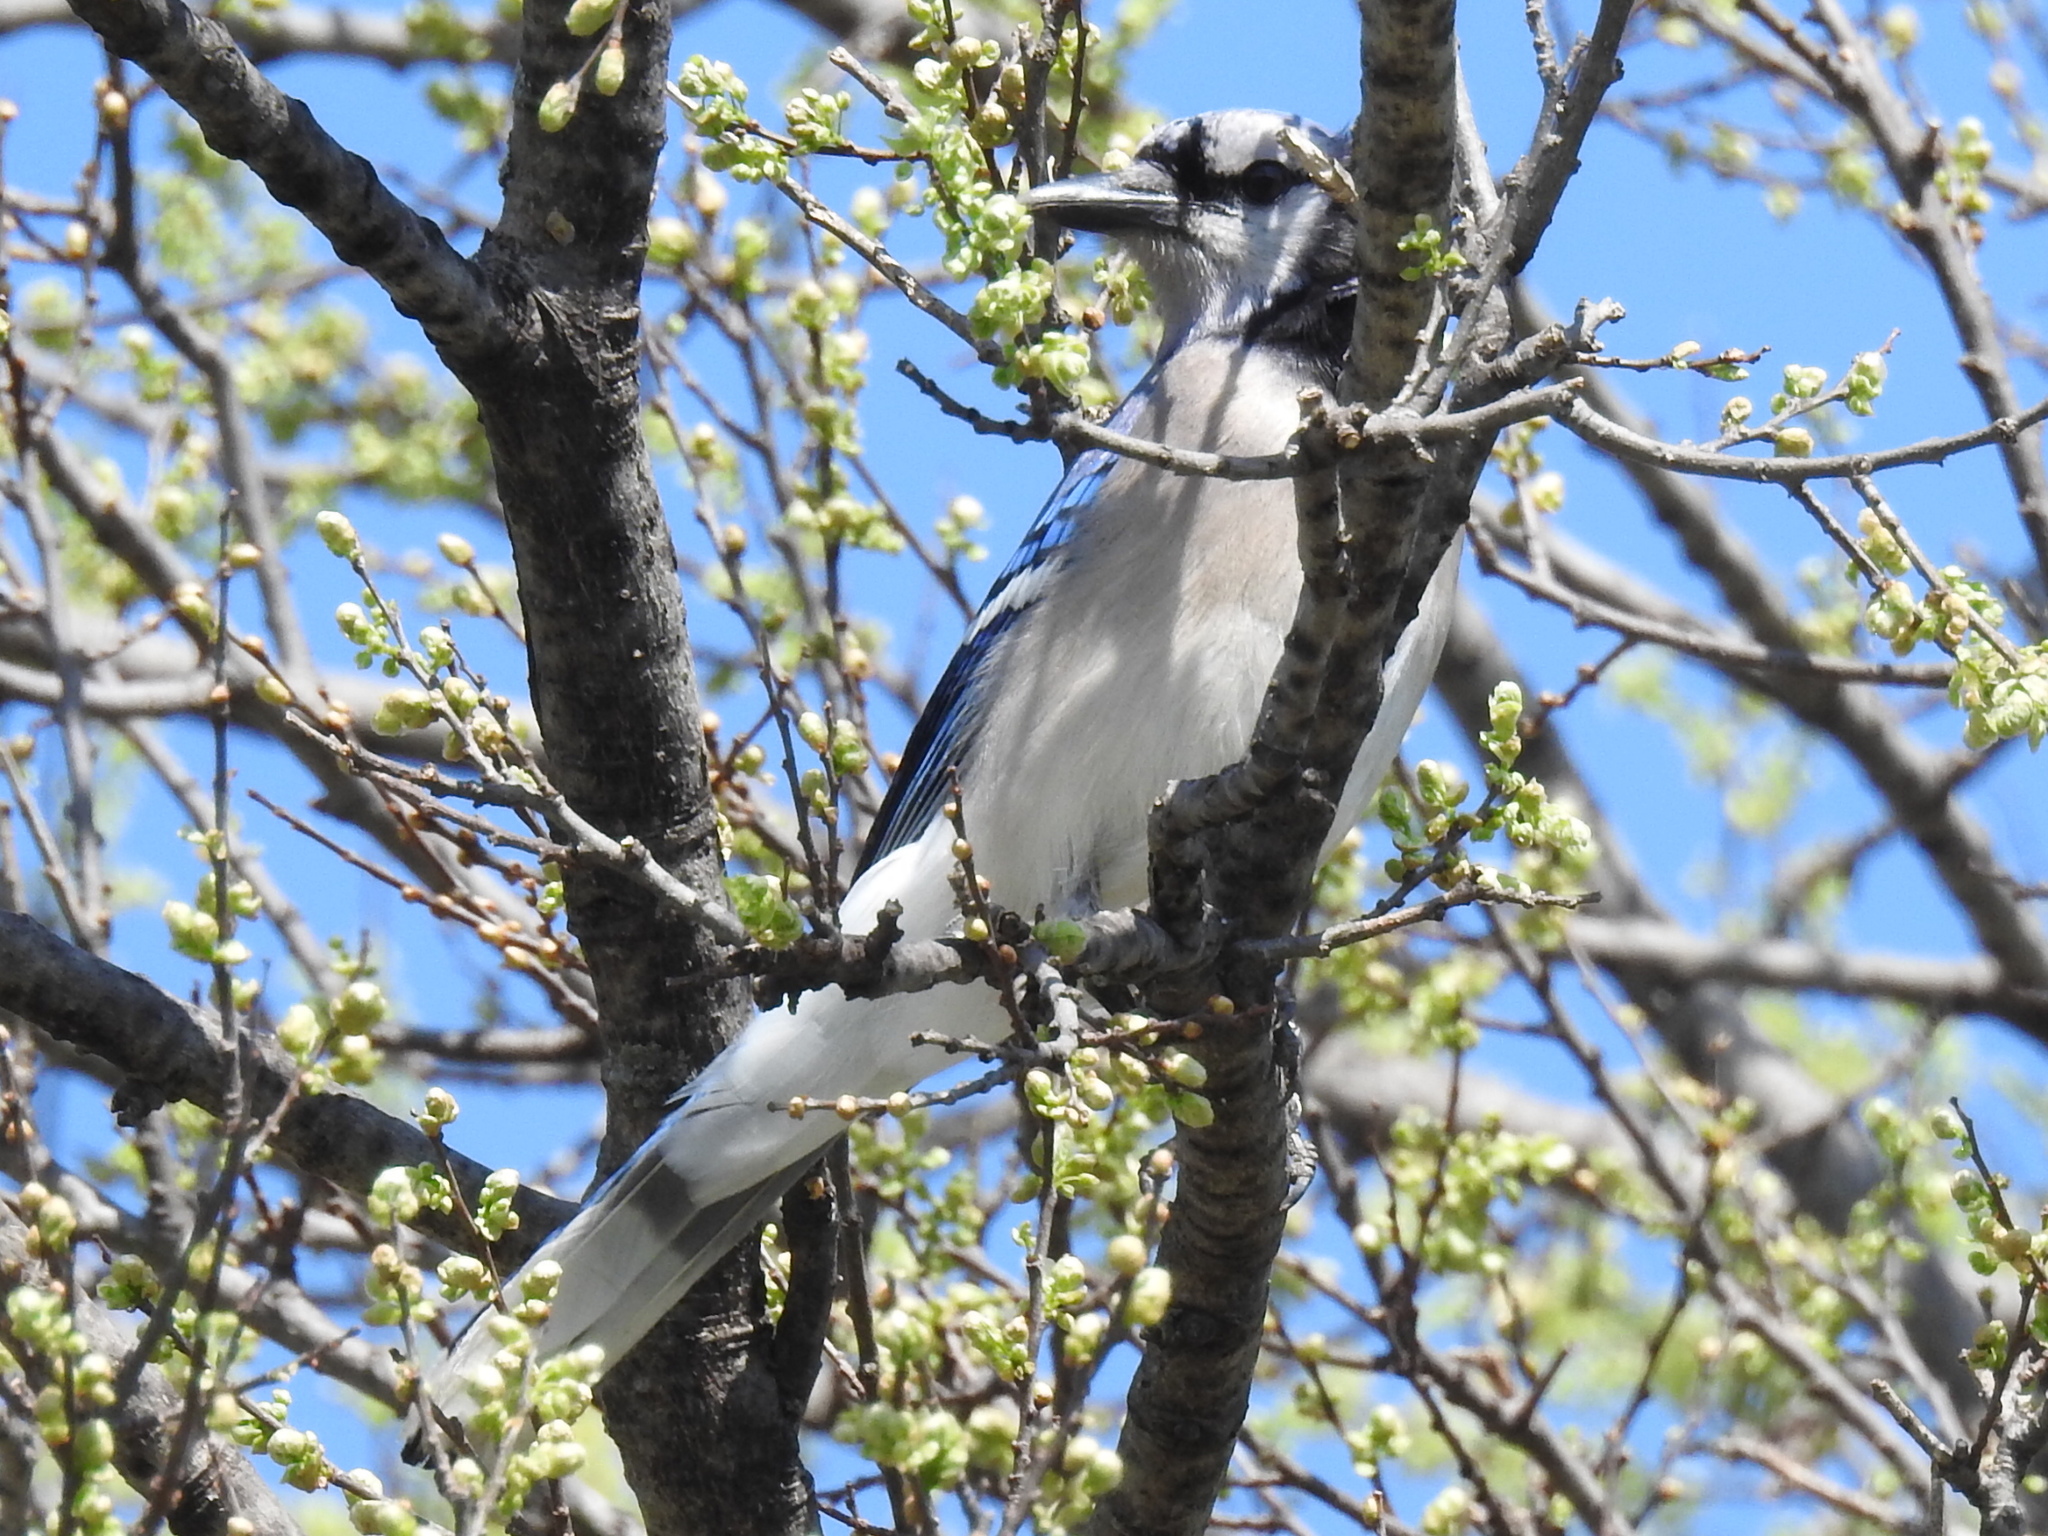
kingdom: Animalia
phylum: Chordata
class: Aves
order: Passeriformes
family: Corvidae
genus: Cyanocitta
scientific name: Cyanocitta cristata
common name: Blue jay
